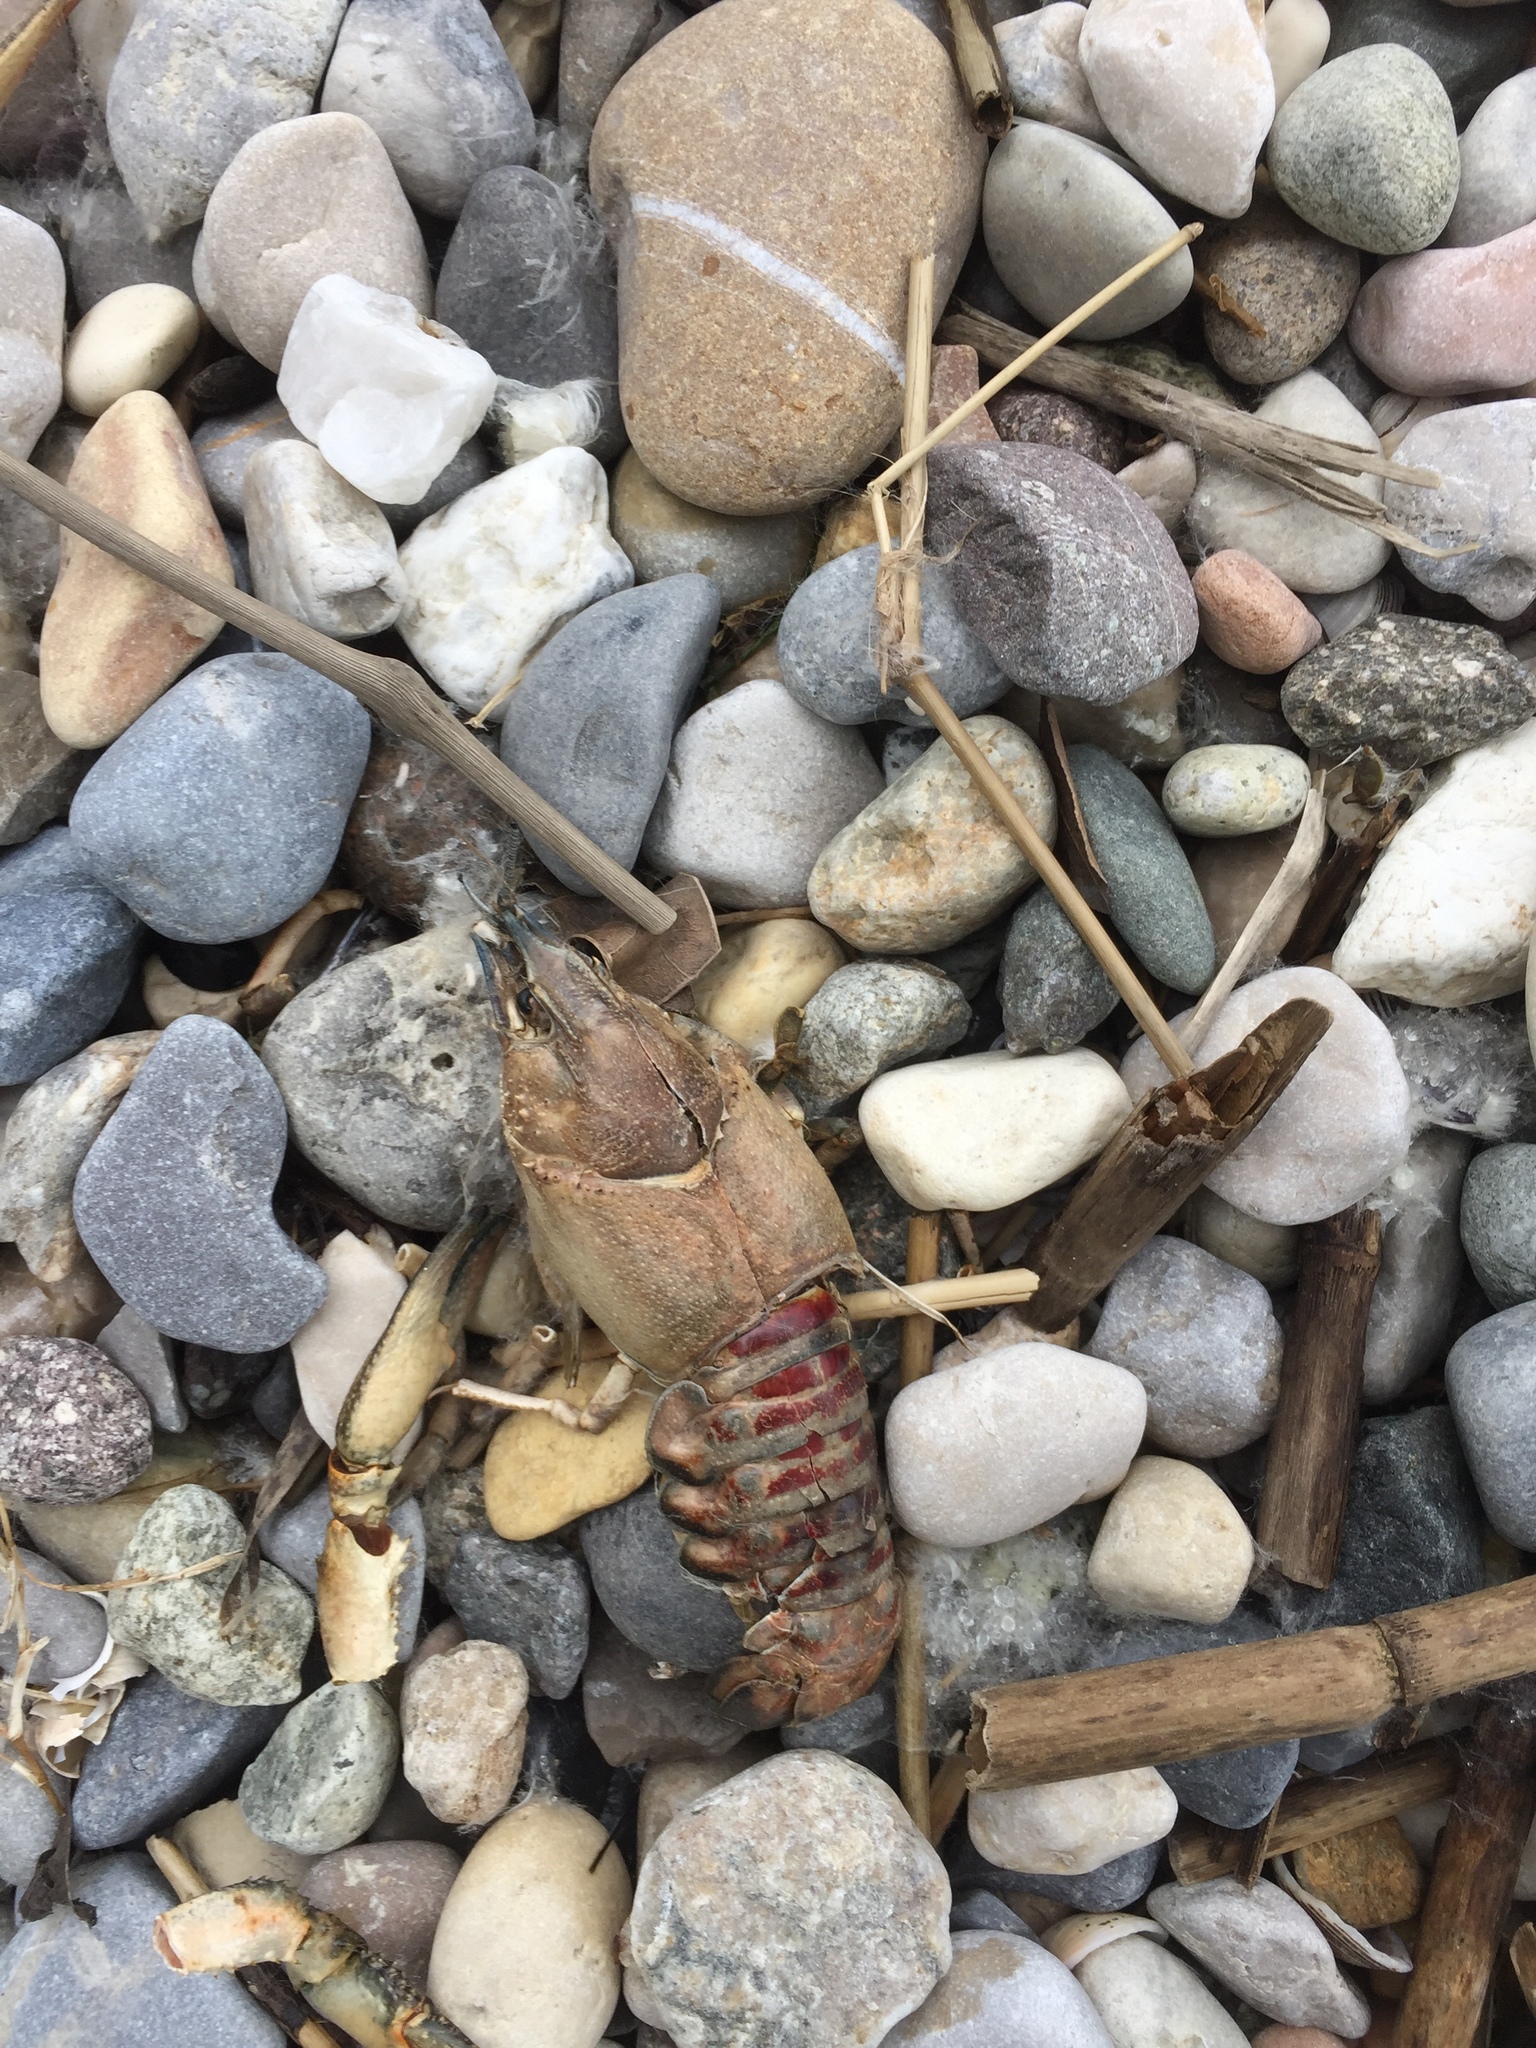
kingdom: Animalia
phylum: Arthropoda
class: Malacostraca
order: Decapoda
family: Cambaridae
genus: Faxonius
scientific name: Faxonius limosus
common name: American crayfish
